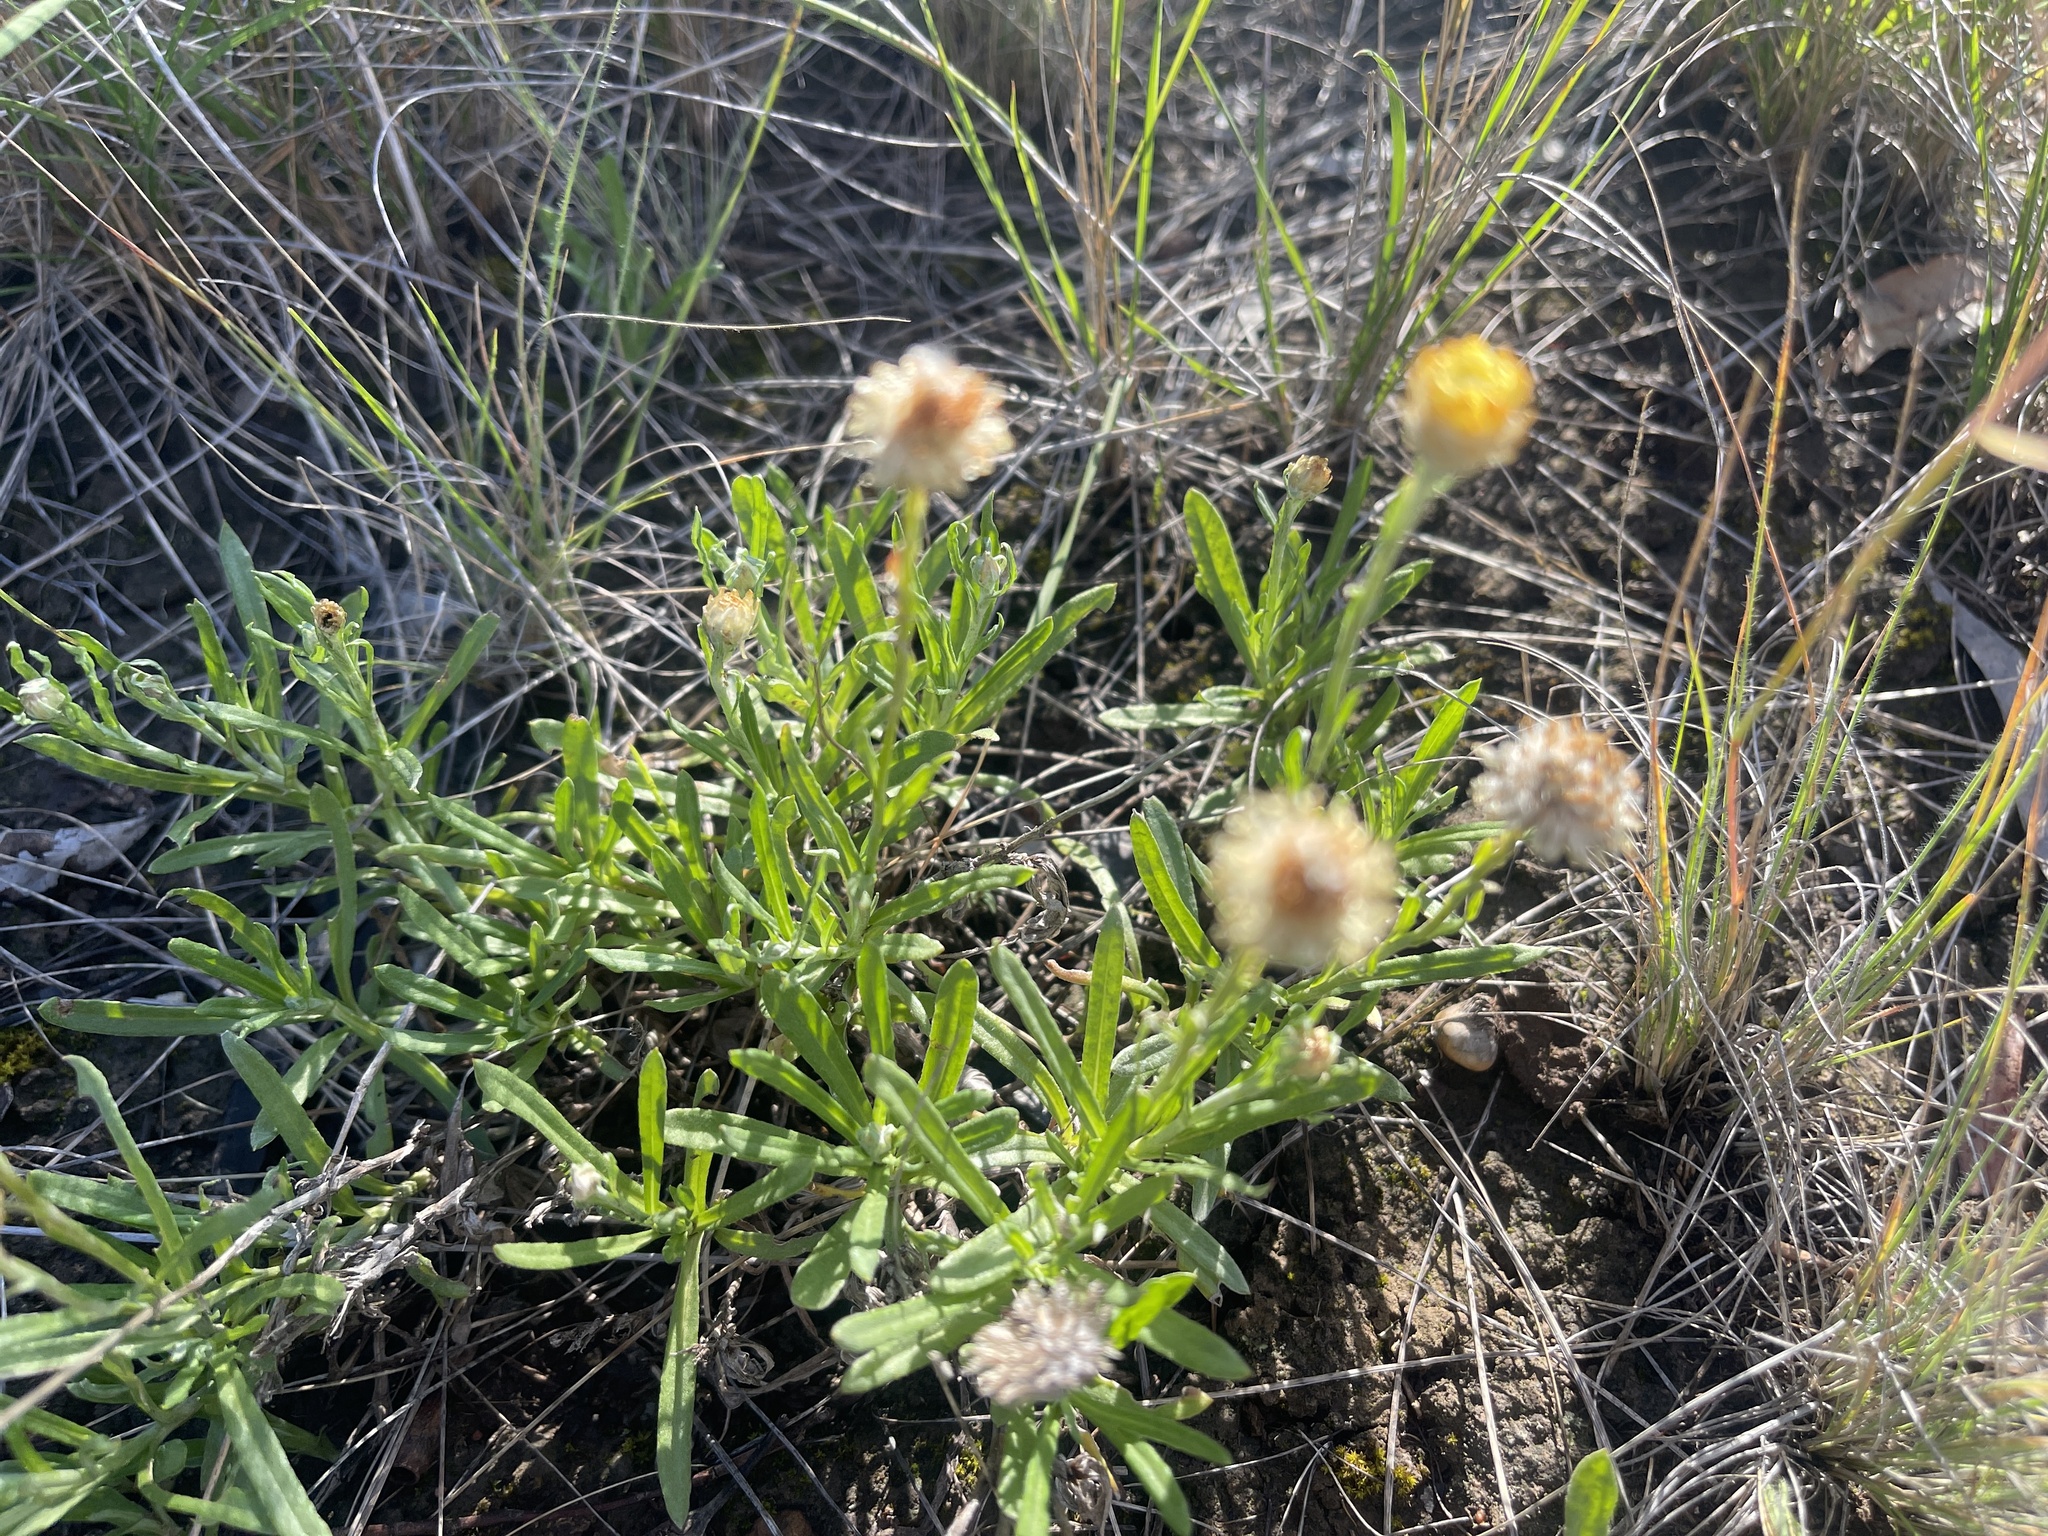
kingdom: Plantae
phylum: Tracheophyta
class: Magnoliopsida
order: Asterales
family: Asteraceae
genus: Coronidium
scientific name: Coronidium gunnianum
